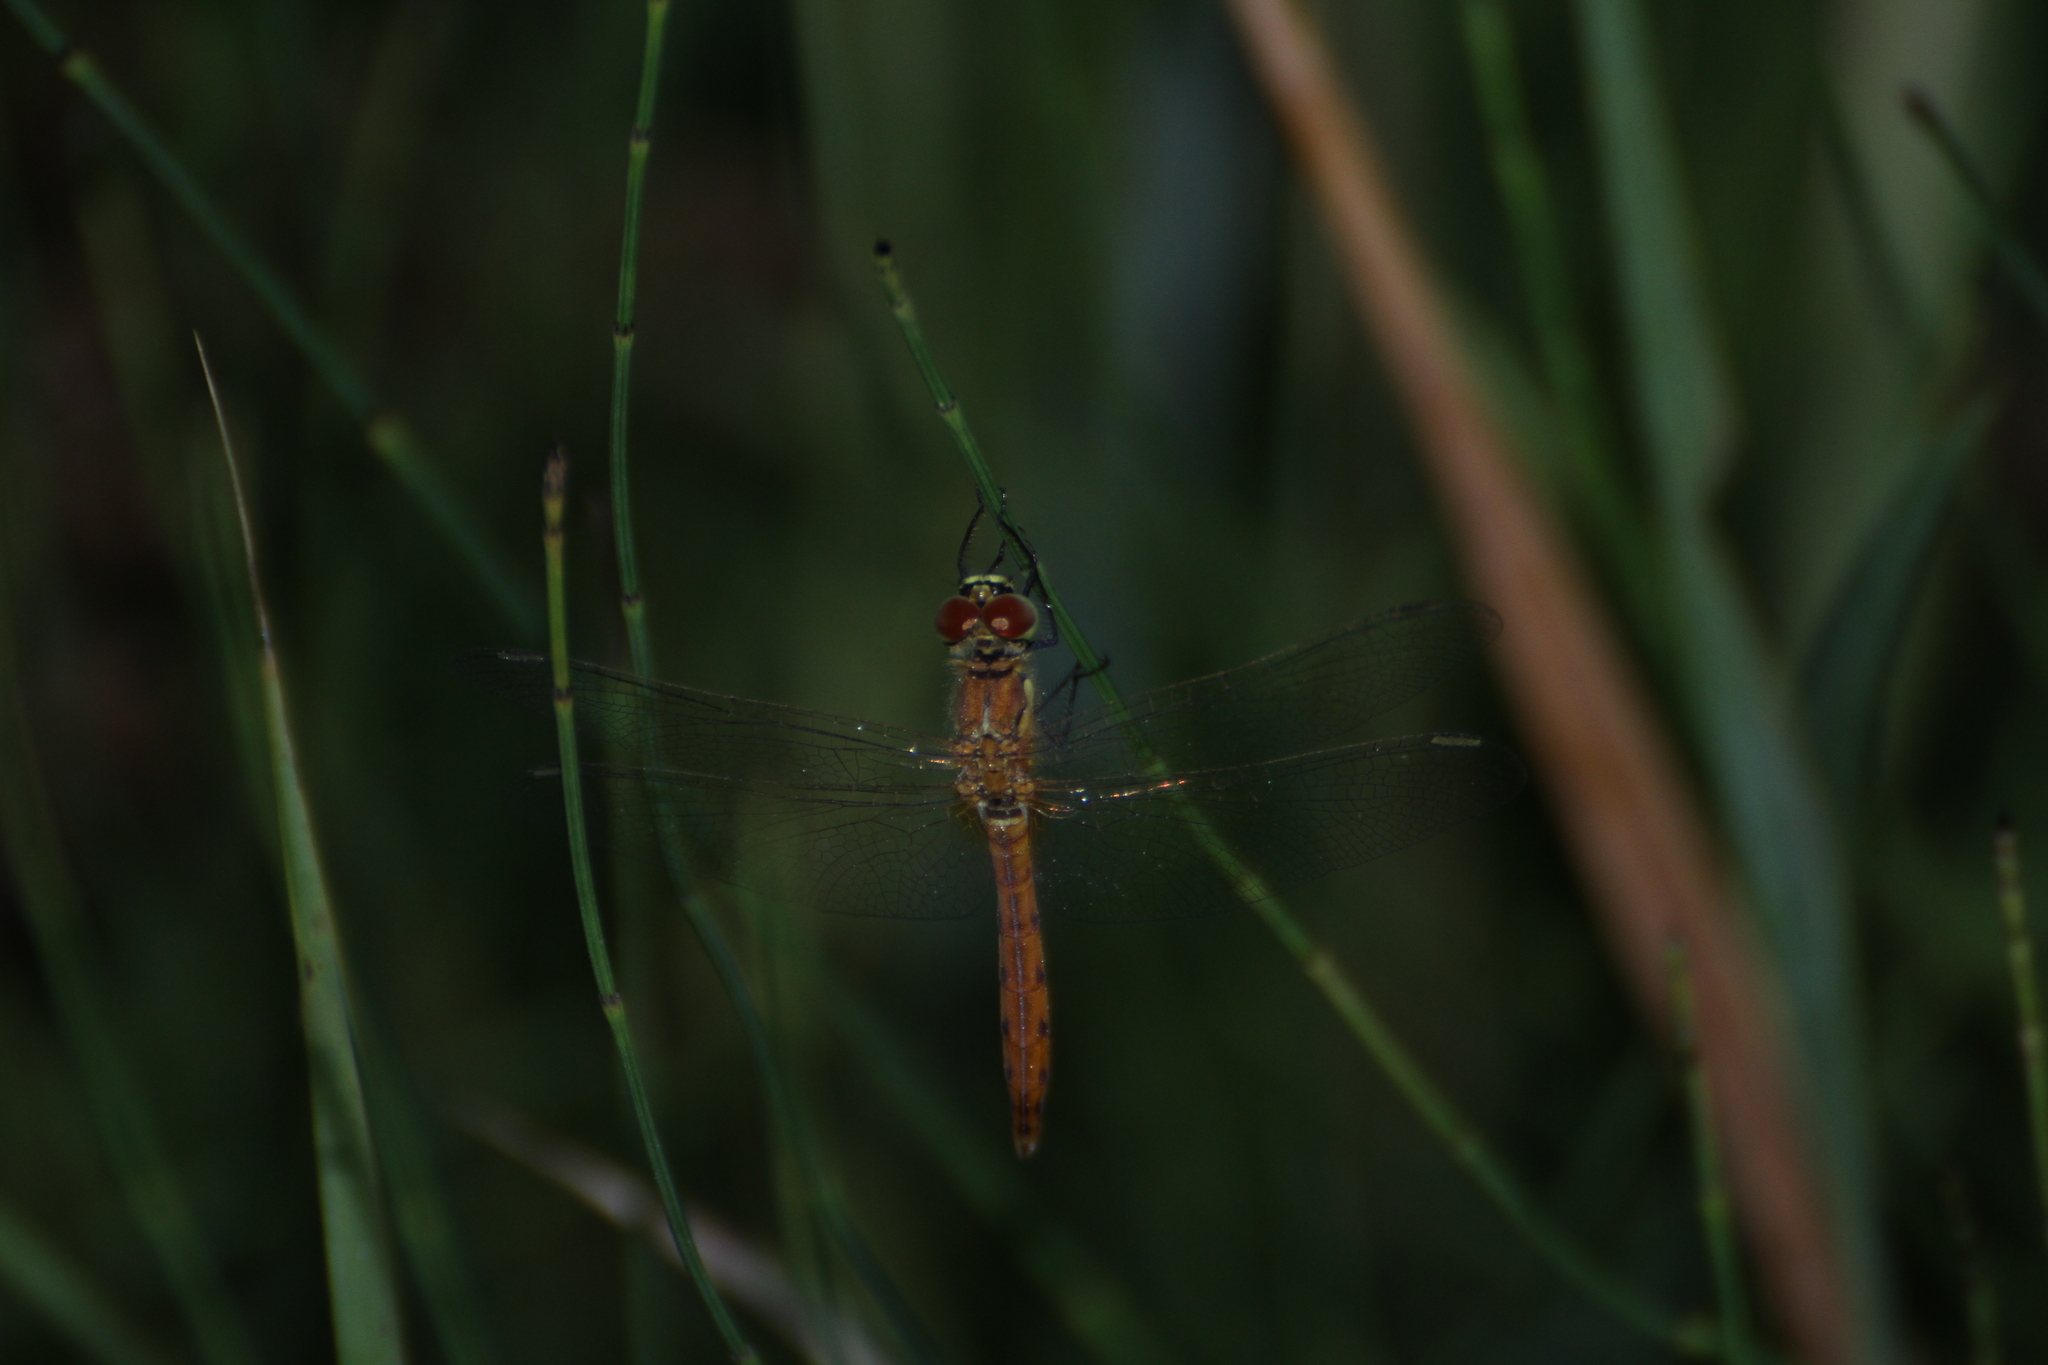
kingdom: Animalia
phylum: Arthropoda
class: Insecta
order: Odonata
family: Libellulidae
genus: Sympetrum
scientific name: Sympetrum depressiusculum
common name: Spotted darter
